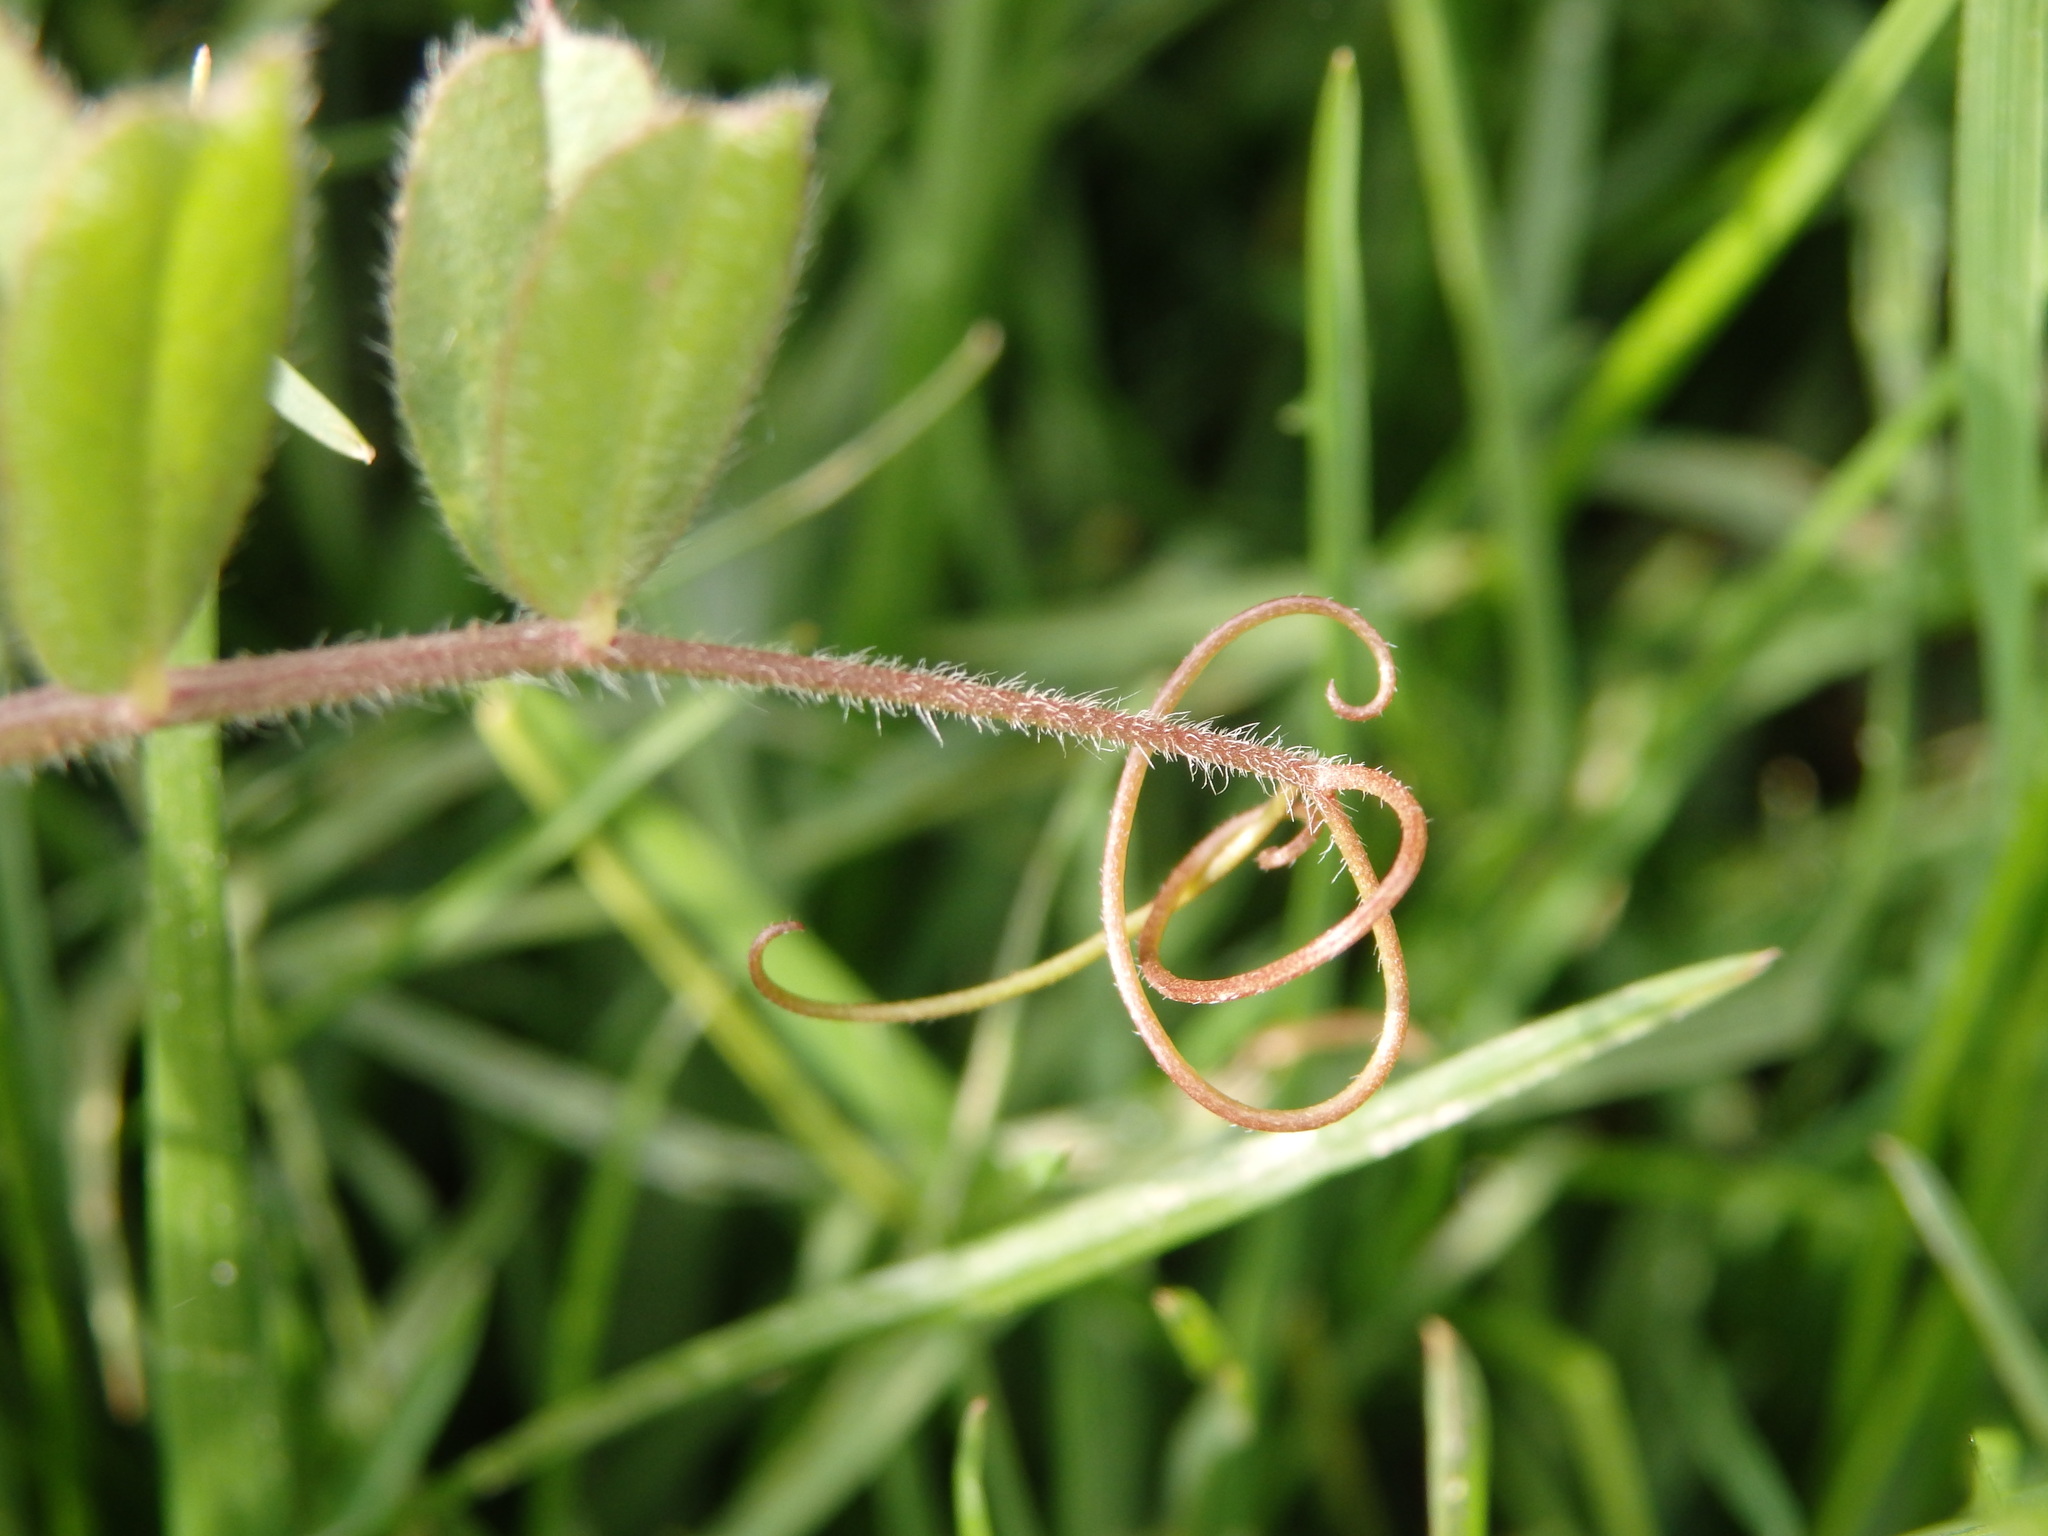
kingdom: Plantae
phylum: Tracheophyta
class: Magnoliopsida
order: Fabales
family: Fabaceae
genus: Vicia
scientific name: Vicia sativa
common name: Garden vetch
